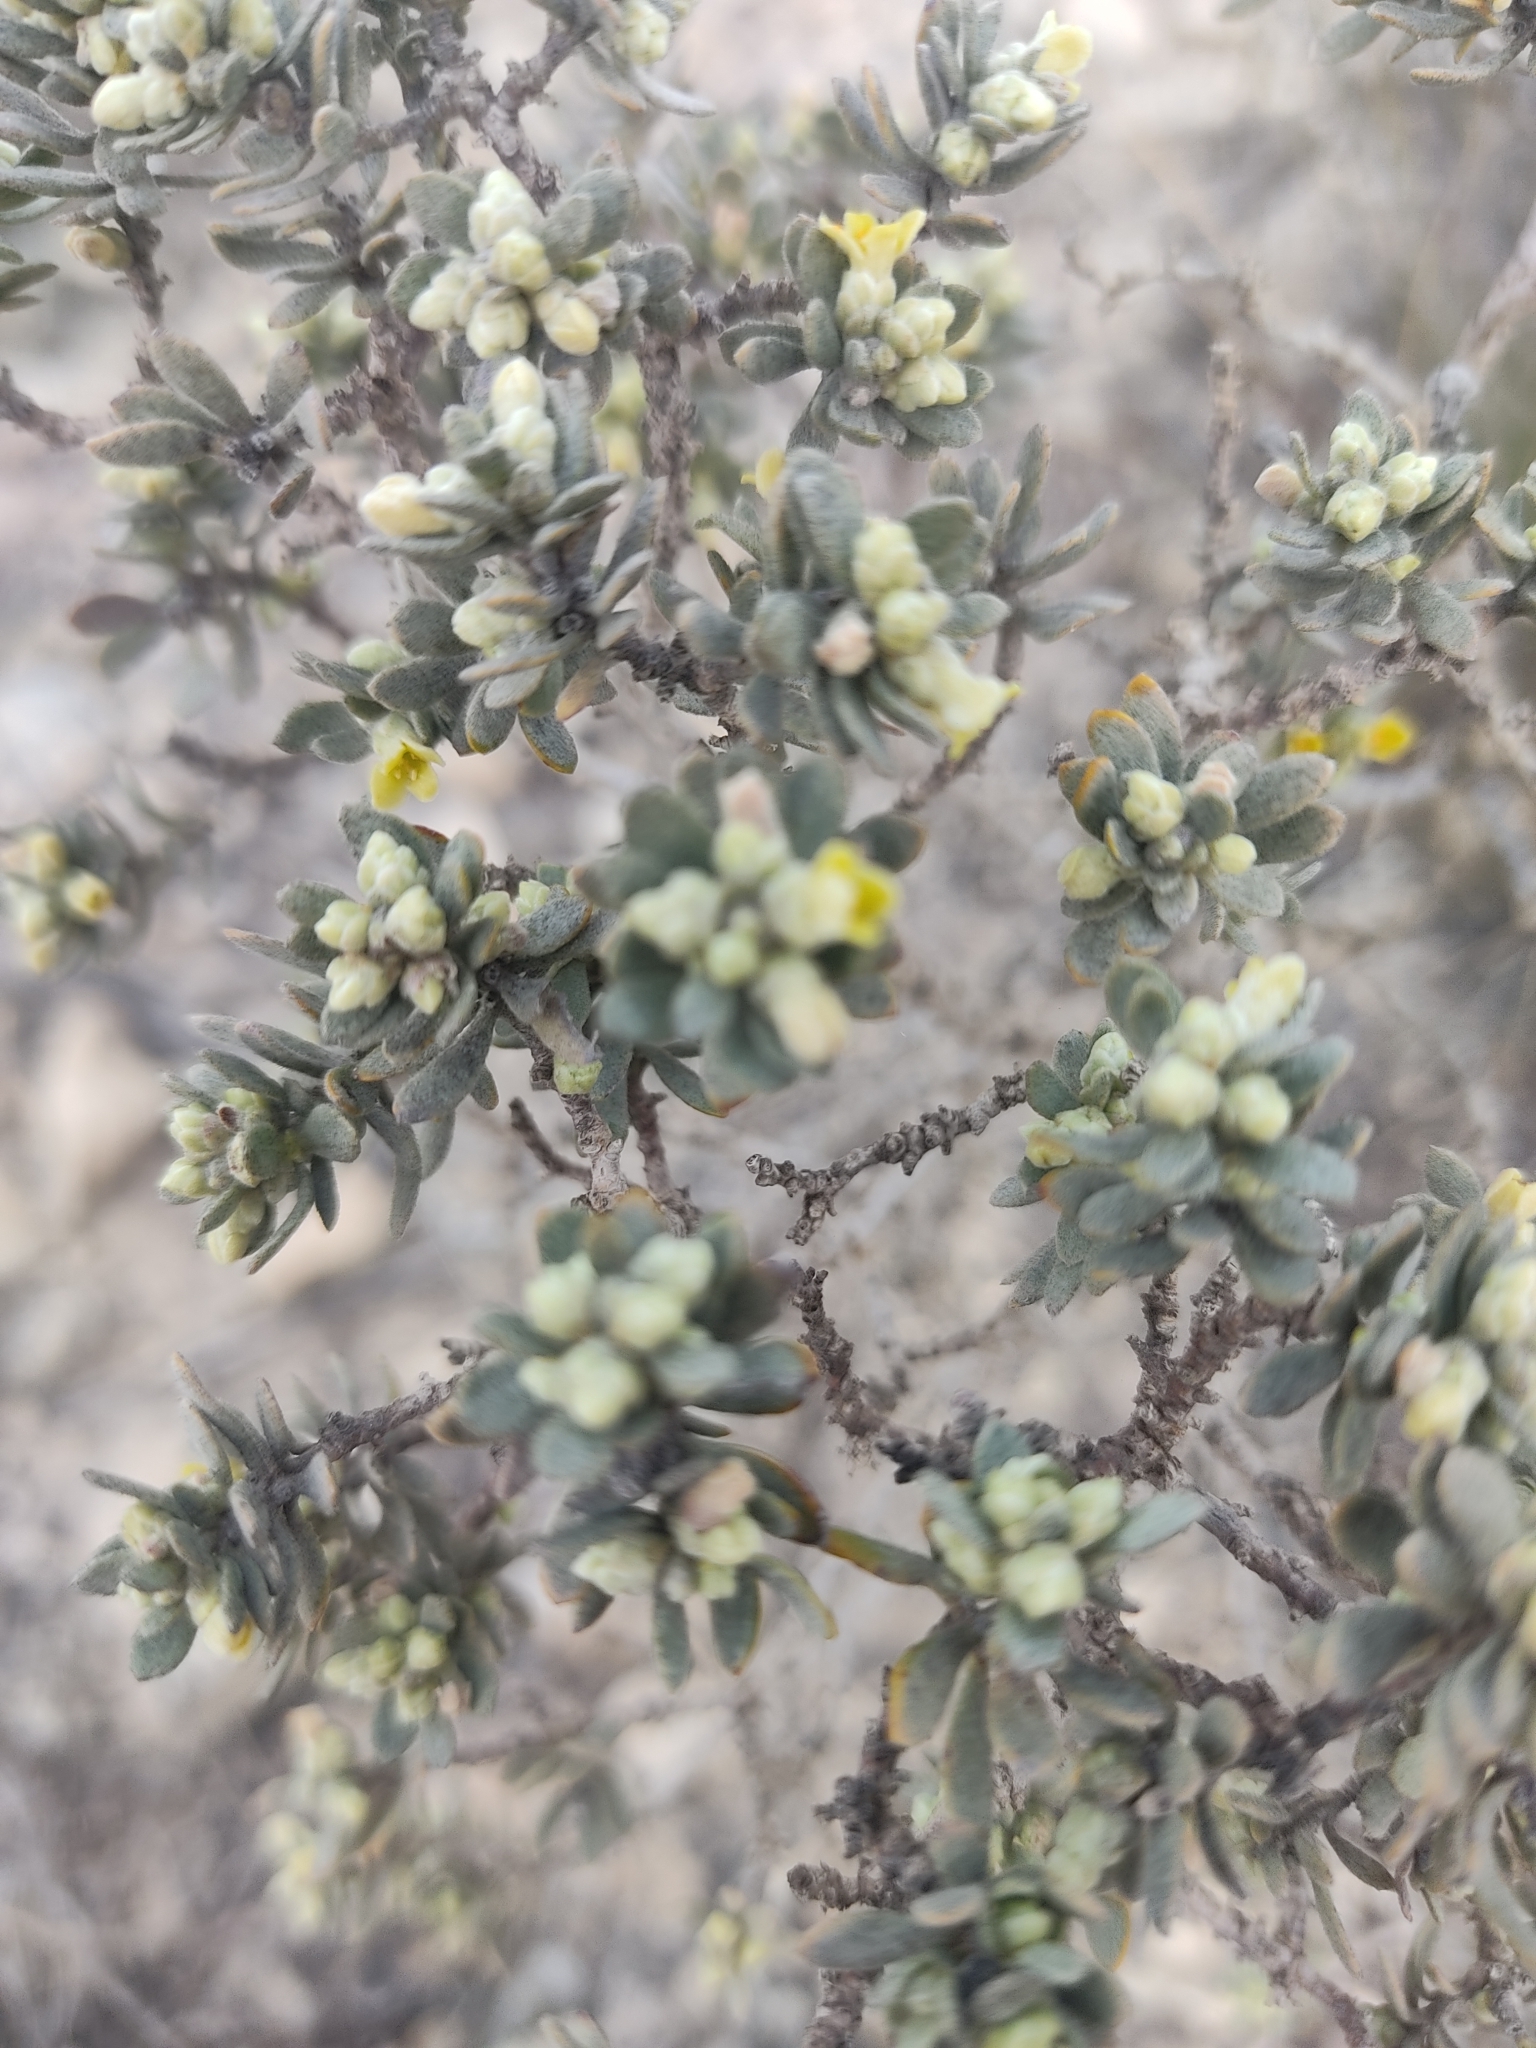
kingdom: Plantae
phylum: Tracheophyta
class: Magnoliopsida
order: Malvales
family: Thymelaeaceae
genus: Thymelaea
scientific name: Thymelaea tartonraira
